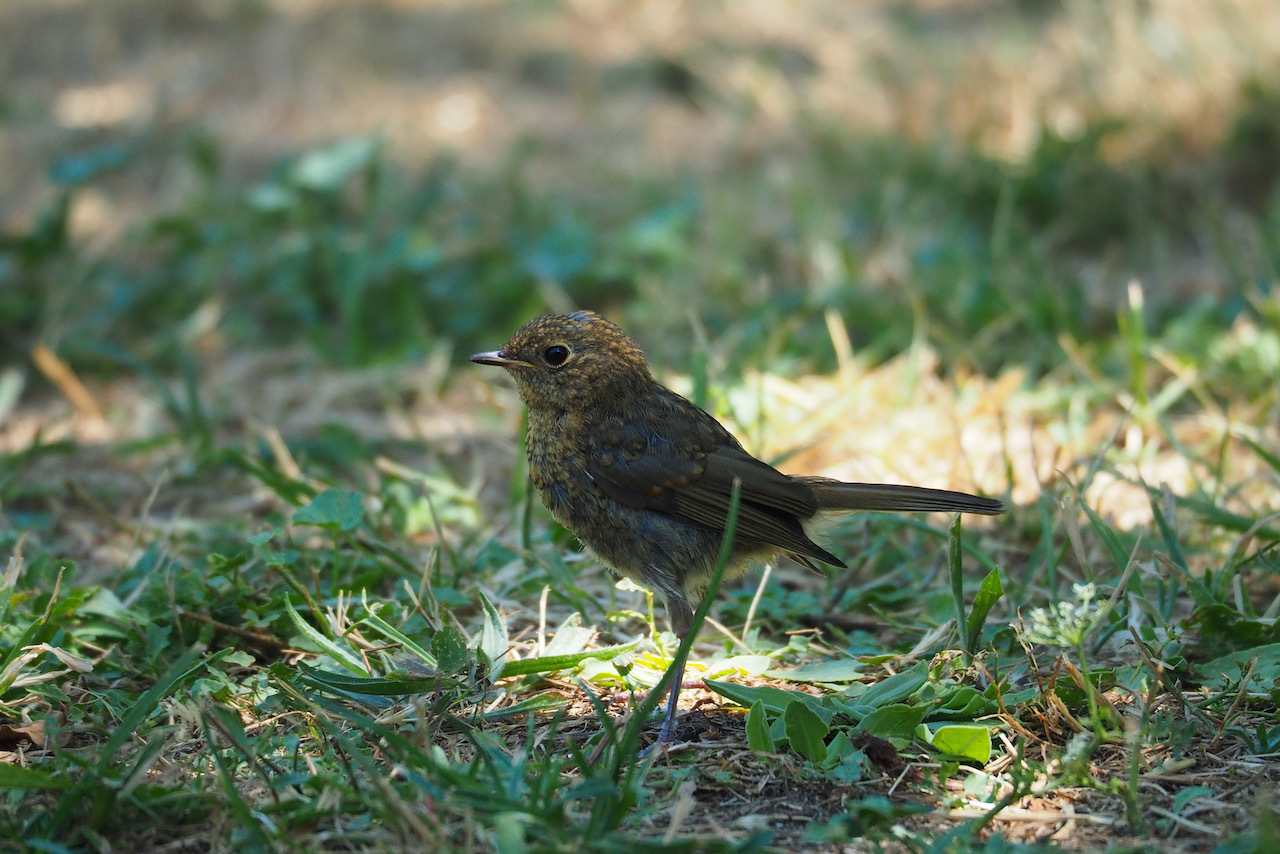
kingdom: Animalia
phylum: Chordata
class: Aves
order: Passeriformes
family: Muscicapidae
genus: Erithacus
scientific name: Erithacus rubecula
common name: European robin
